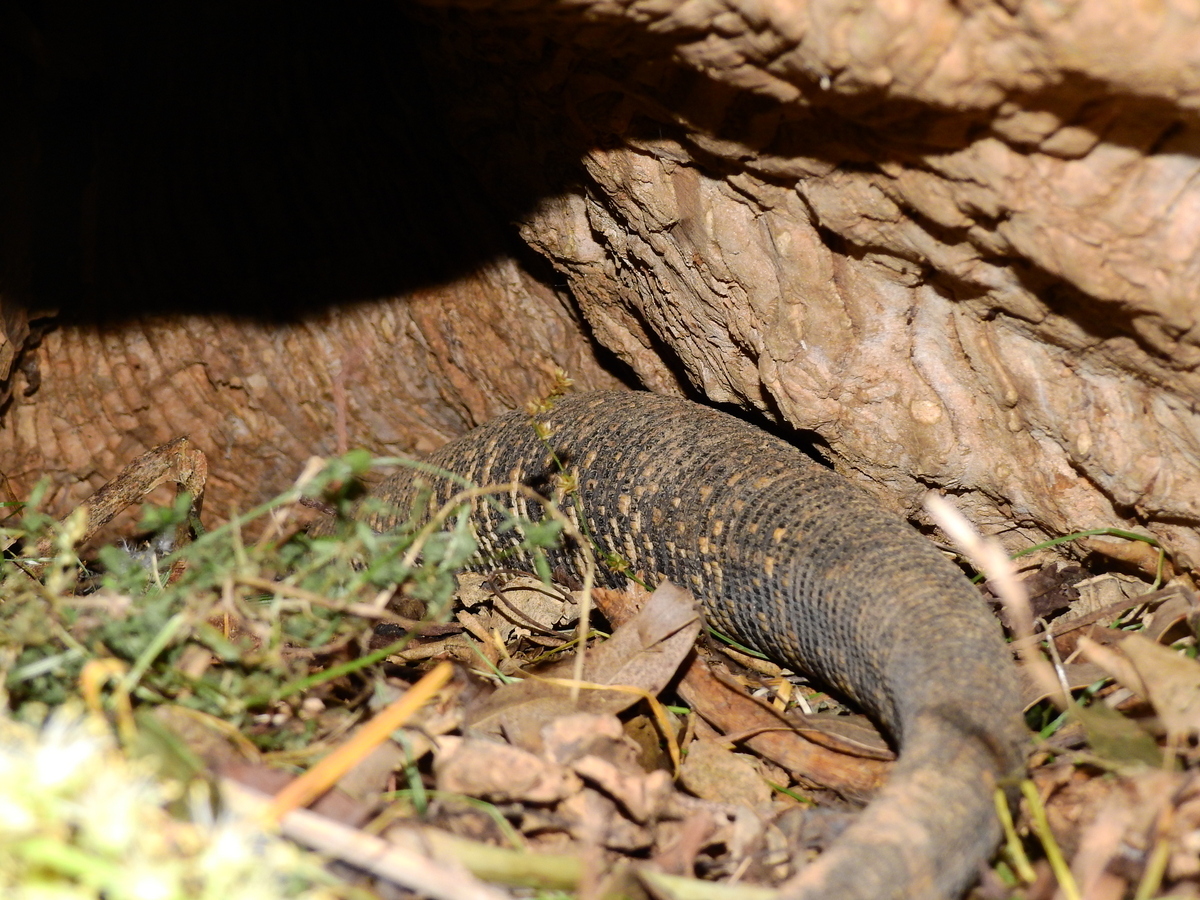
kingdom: Animalia
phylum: Chordata
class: Squamata
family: Teiidae
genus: Salvator
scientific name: Salvator merianae
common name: Argentine black and white tegu
